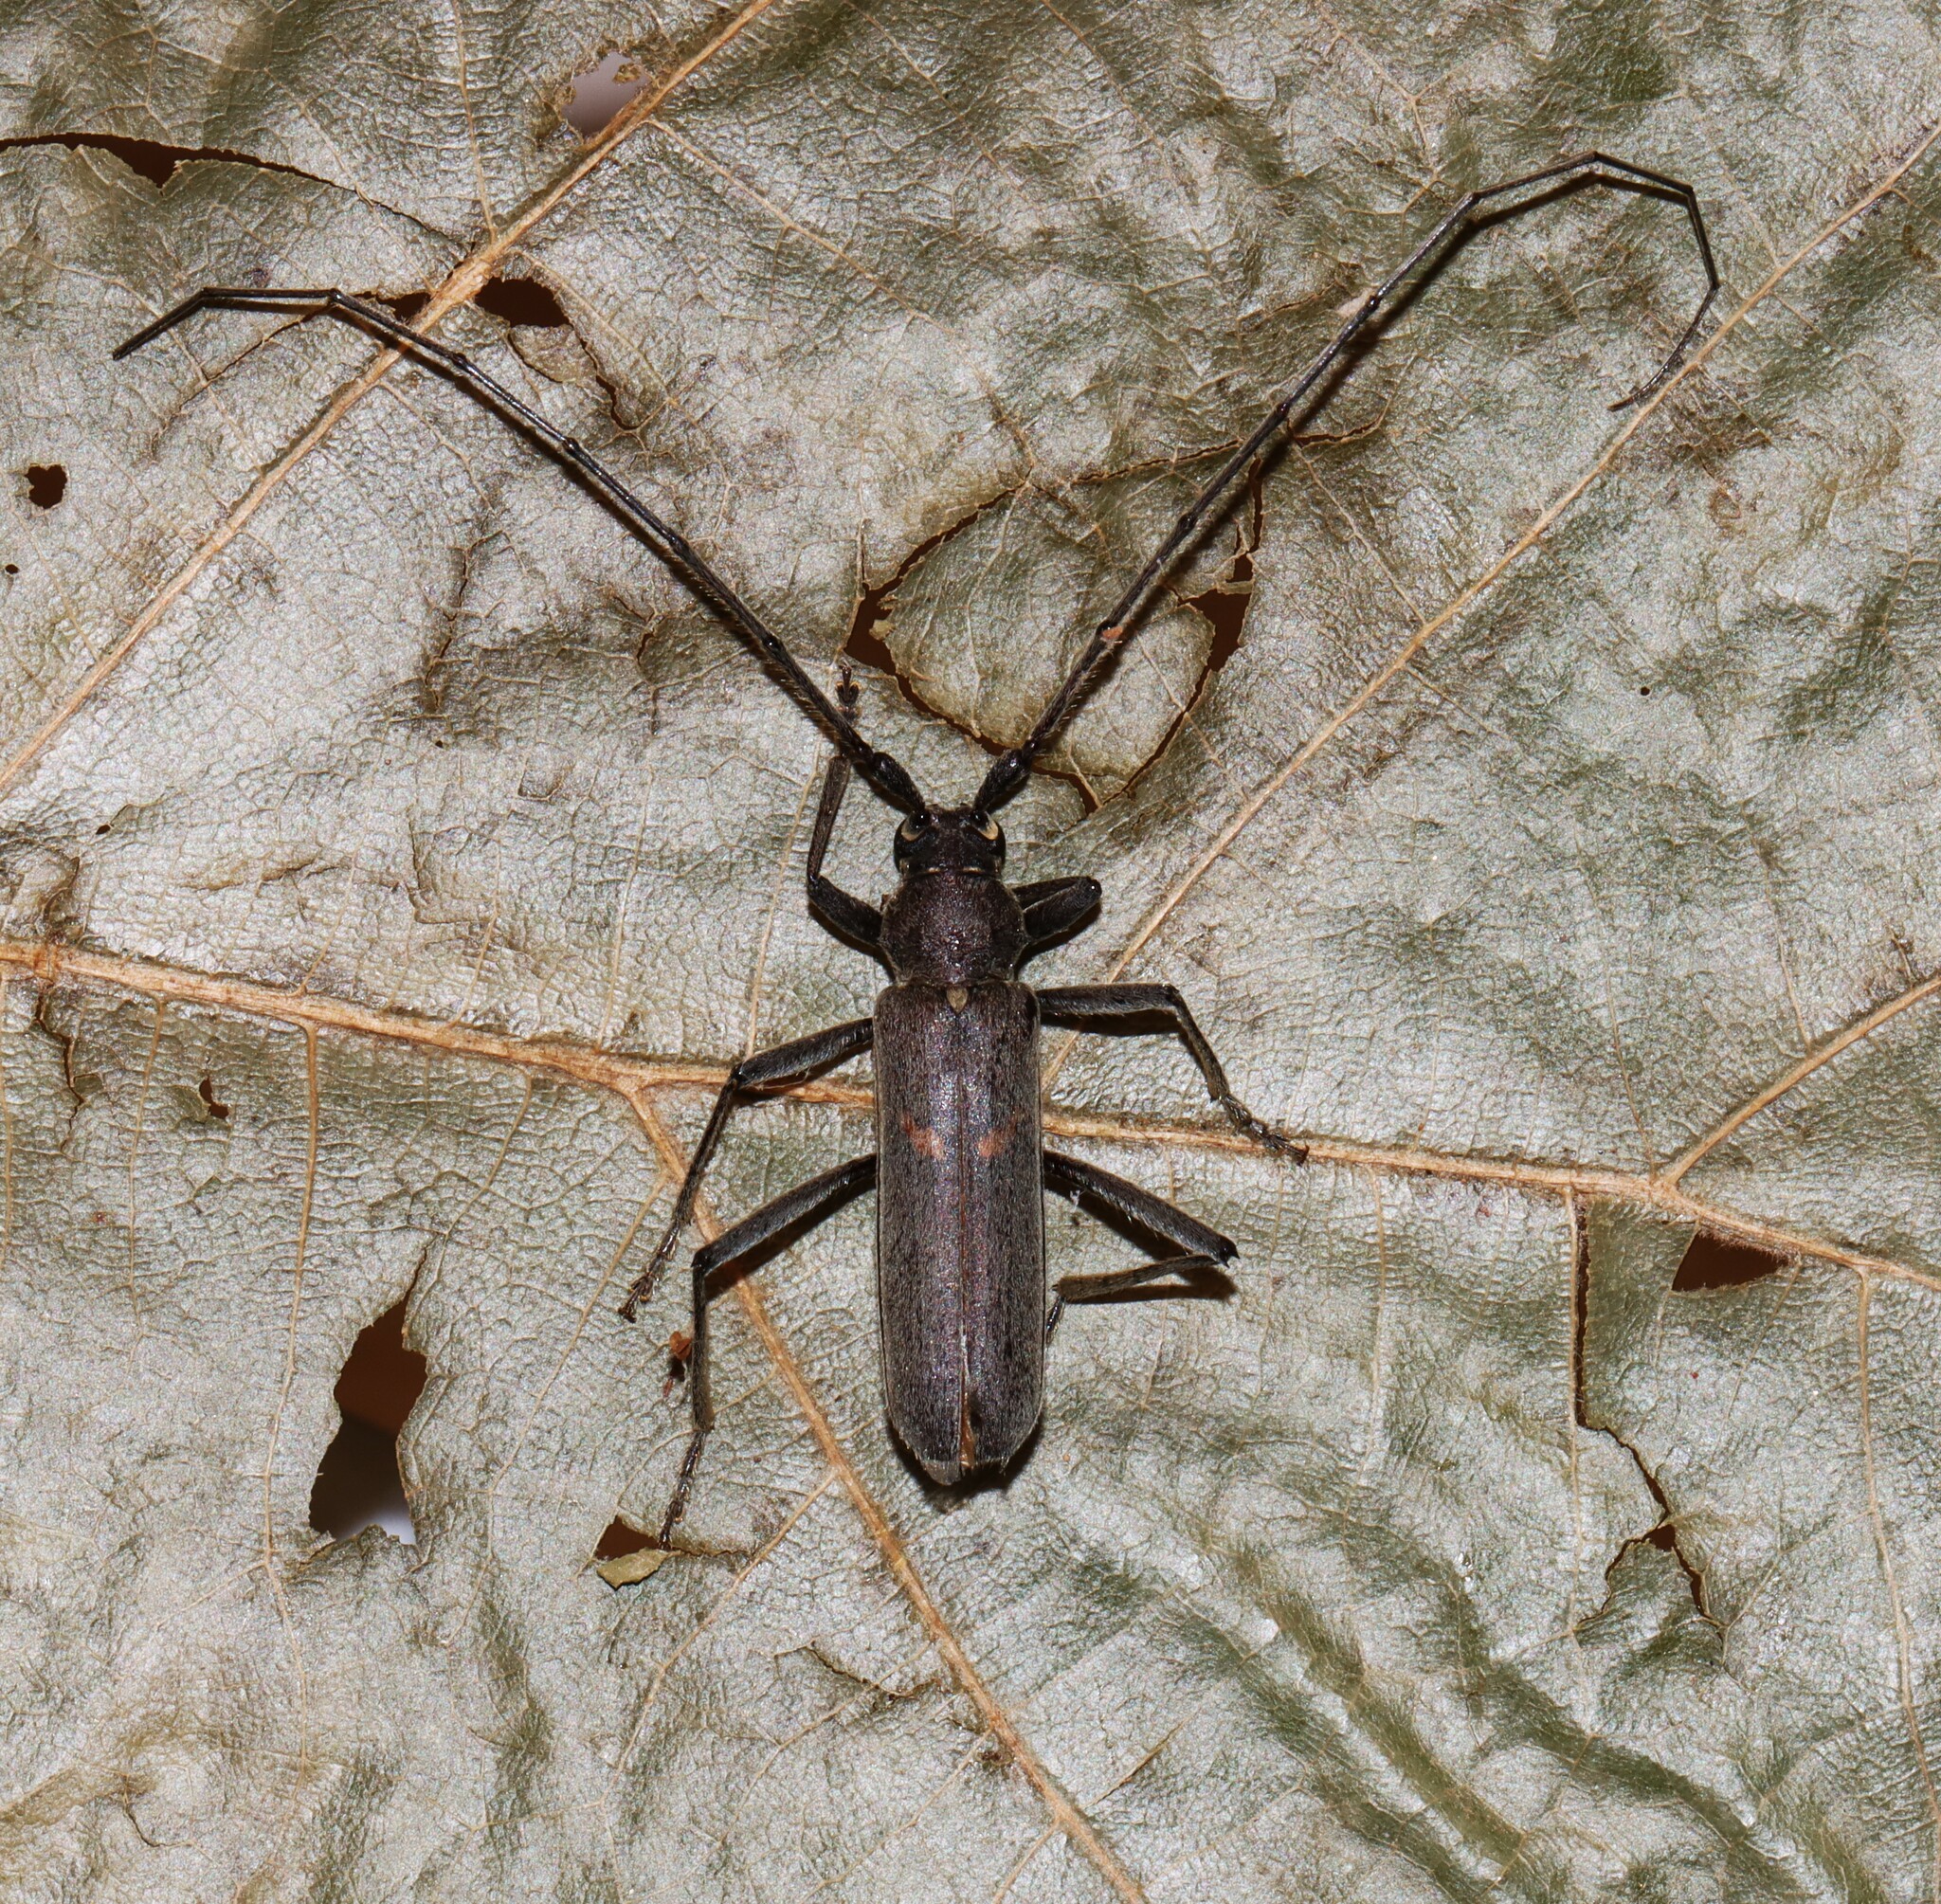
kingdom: Animalia
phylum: Arthropoda
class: Insecta
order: Coleoptera
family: Cerambycidae
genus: Knulliana
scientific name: Knulliana cincta
